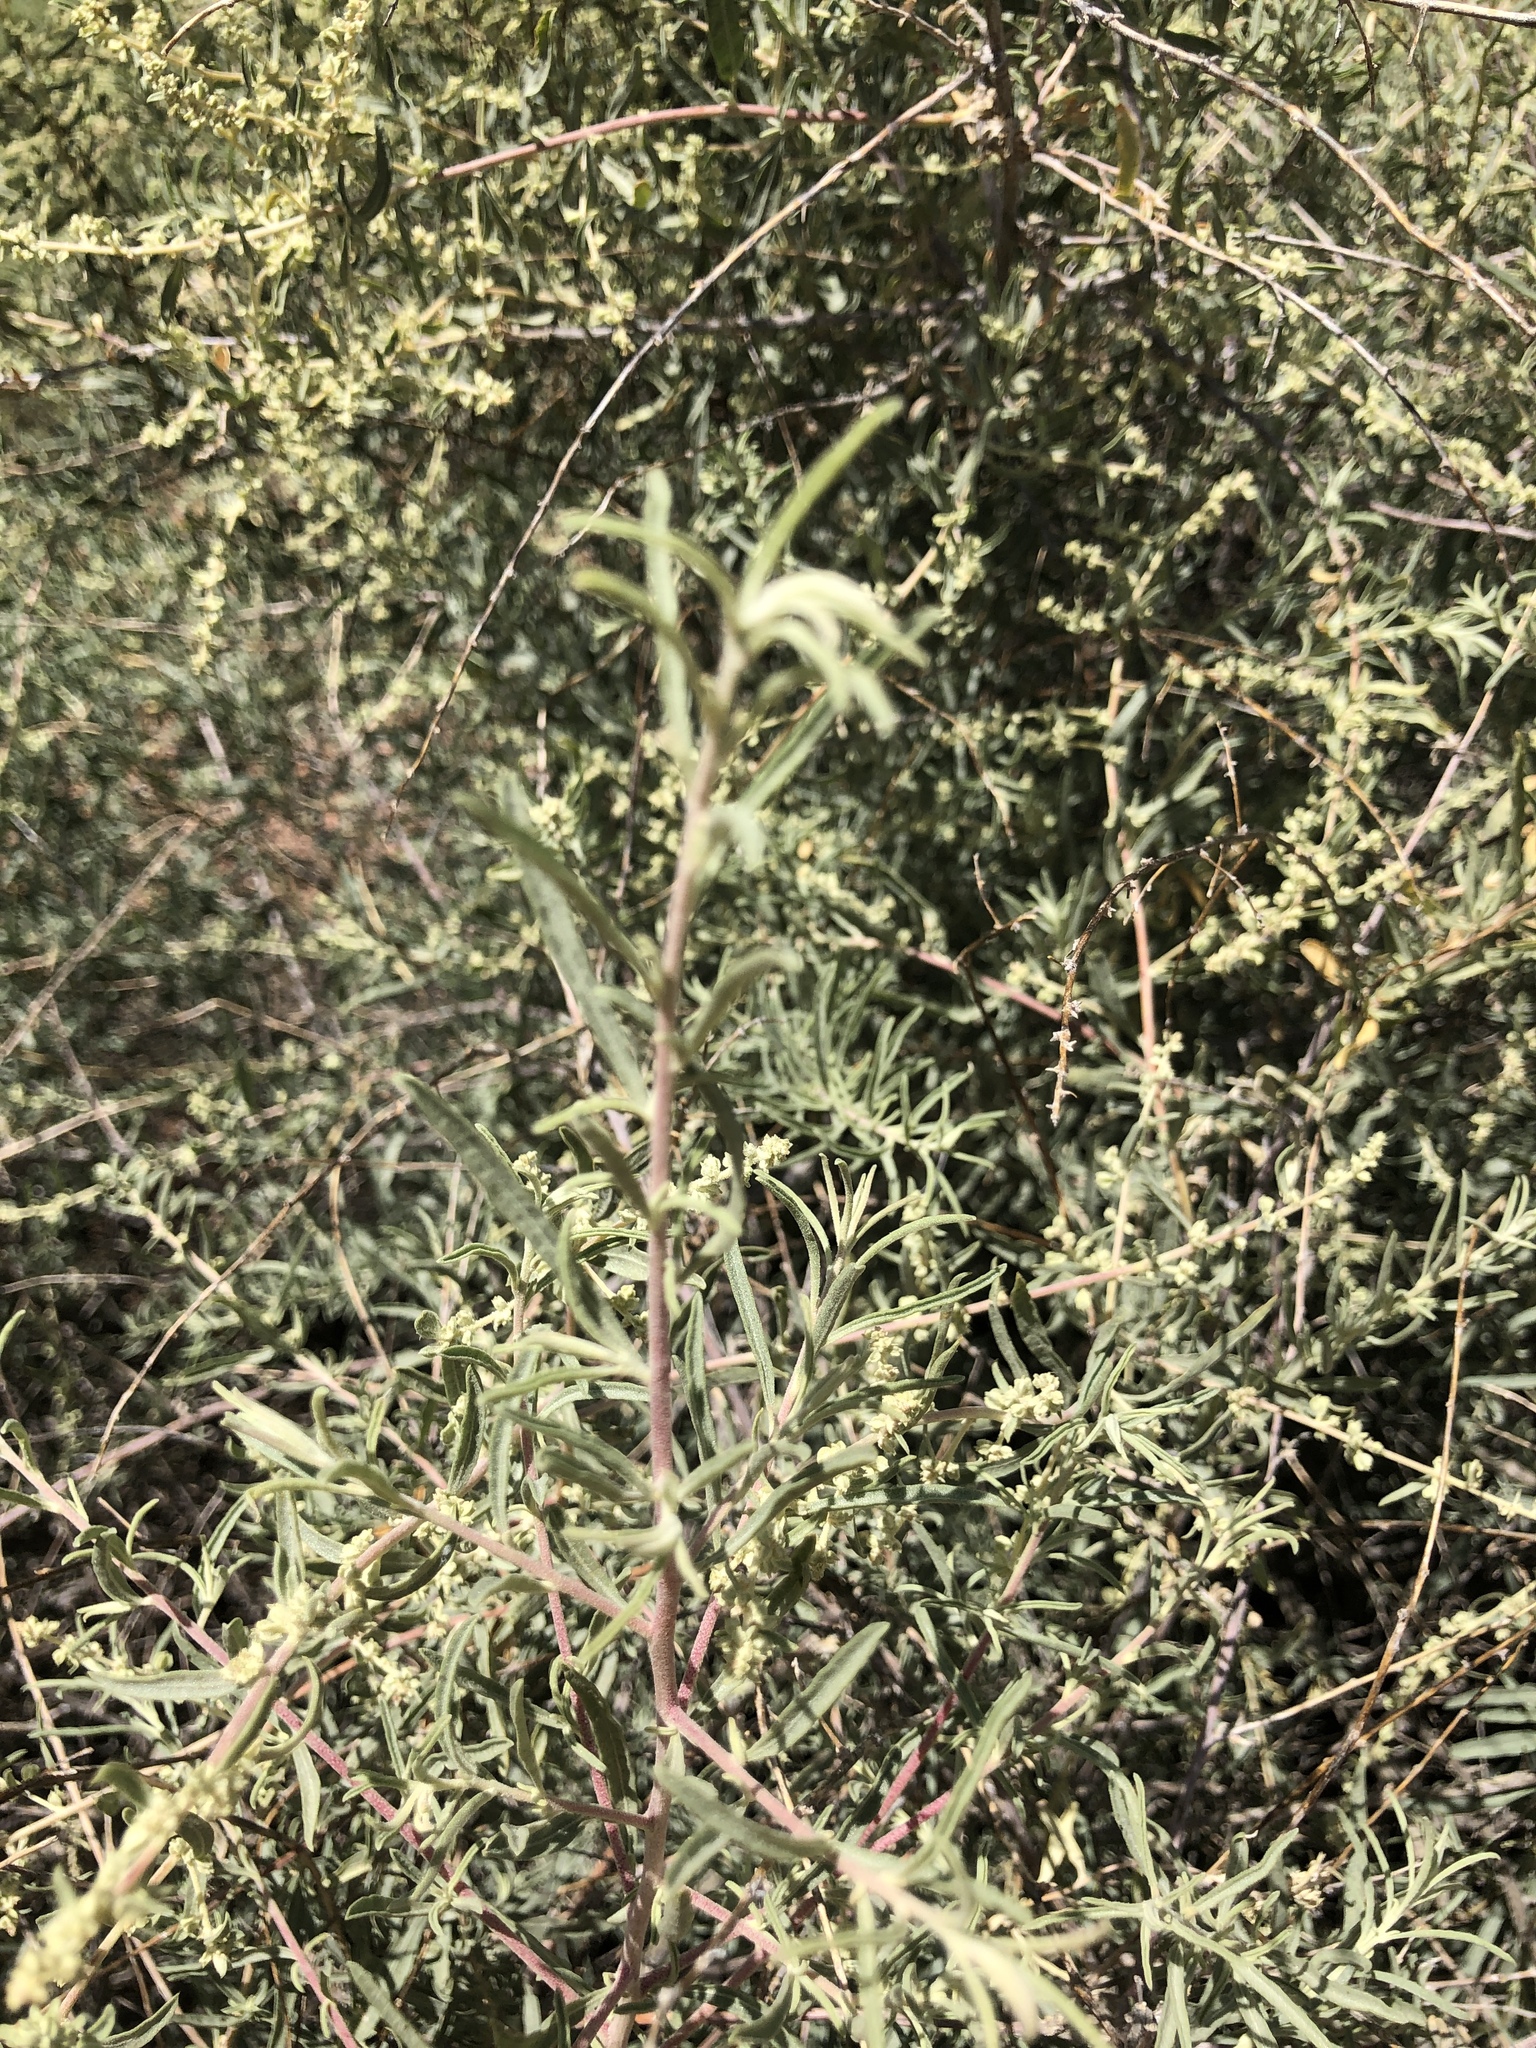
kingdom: Plantae
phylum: Tracheophyta
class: Magnoliopsida
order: Caryophyllales
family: Amaranthaceae
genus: Atriplex
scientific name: Atriplex canescens
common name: Four-wing saltbush
